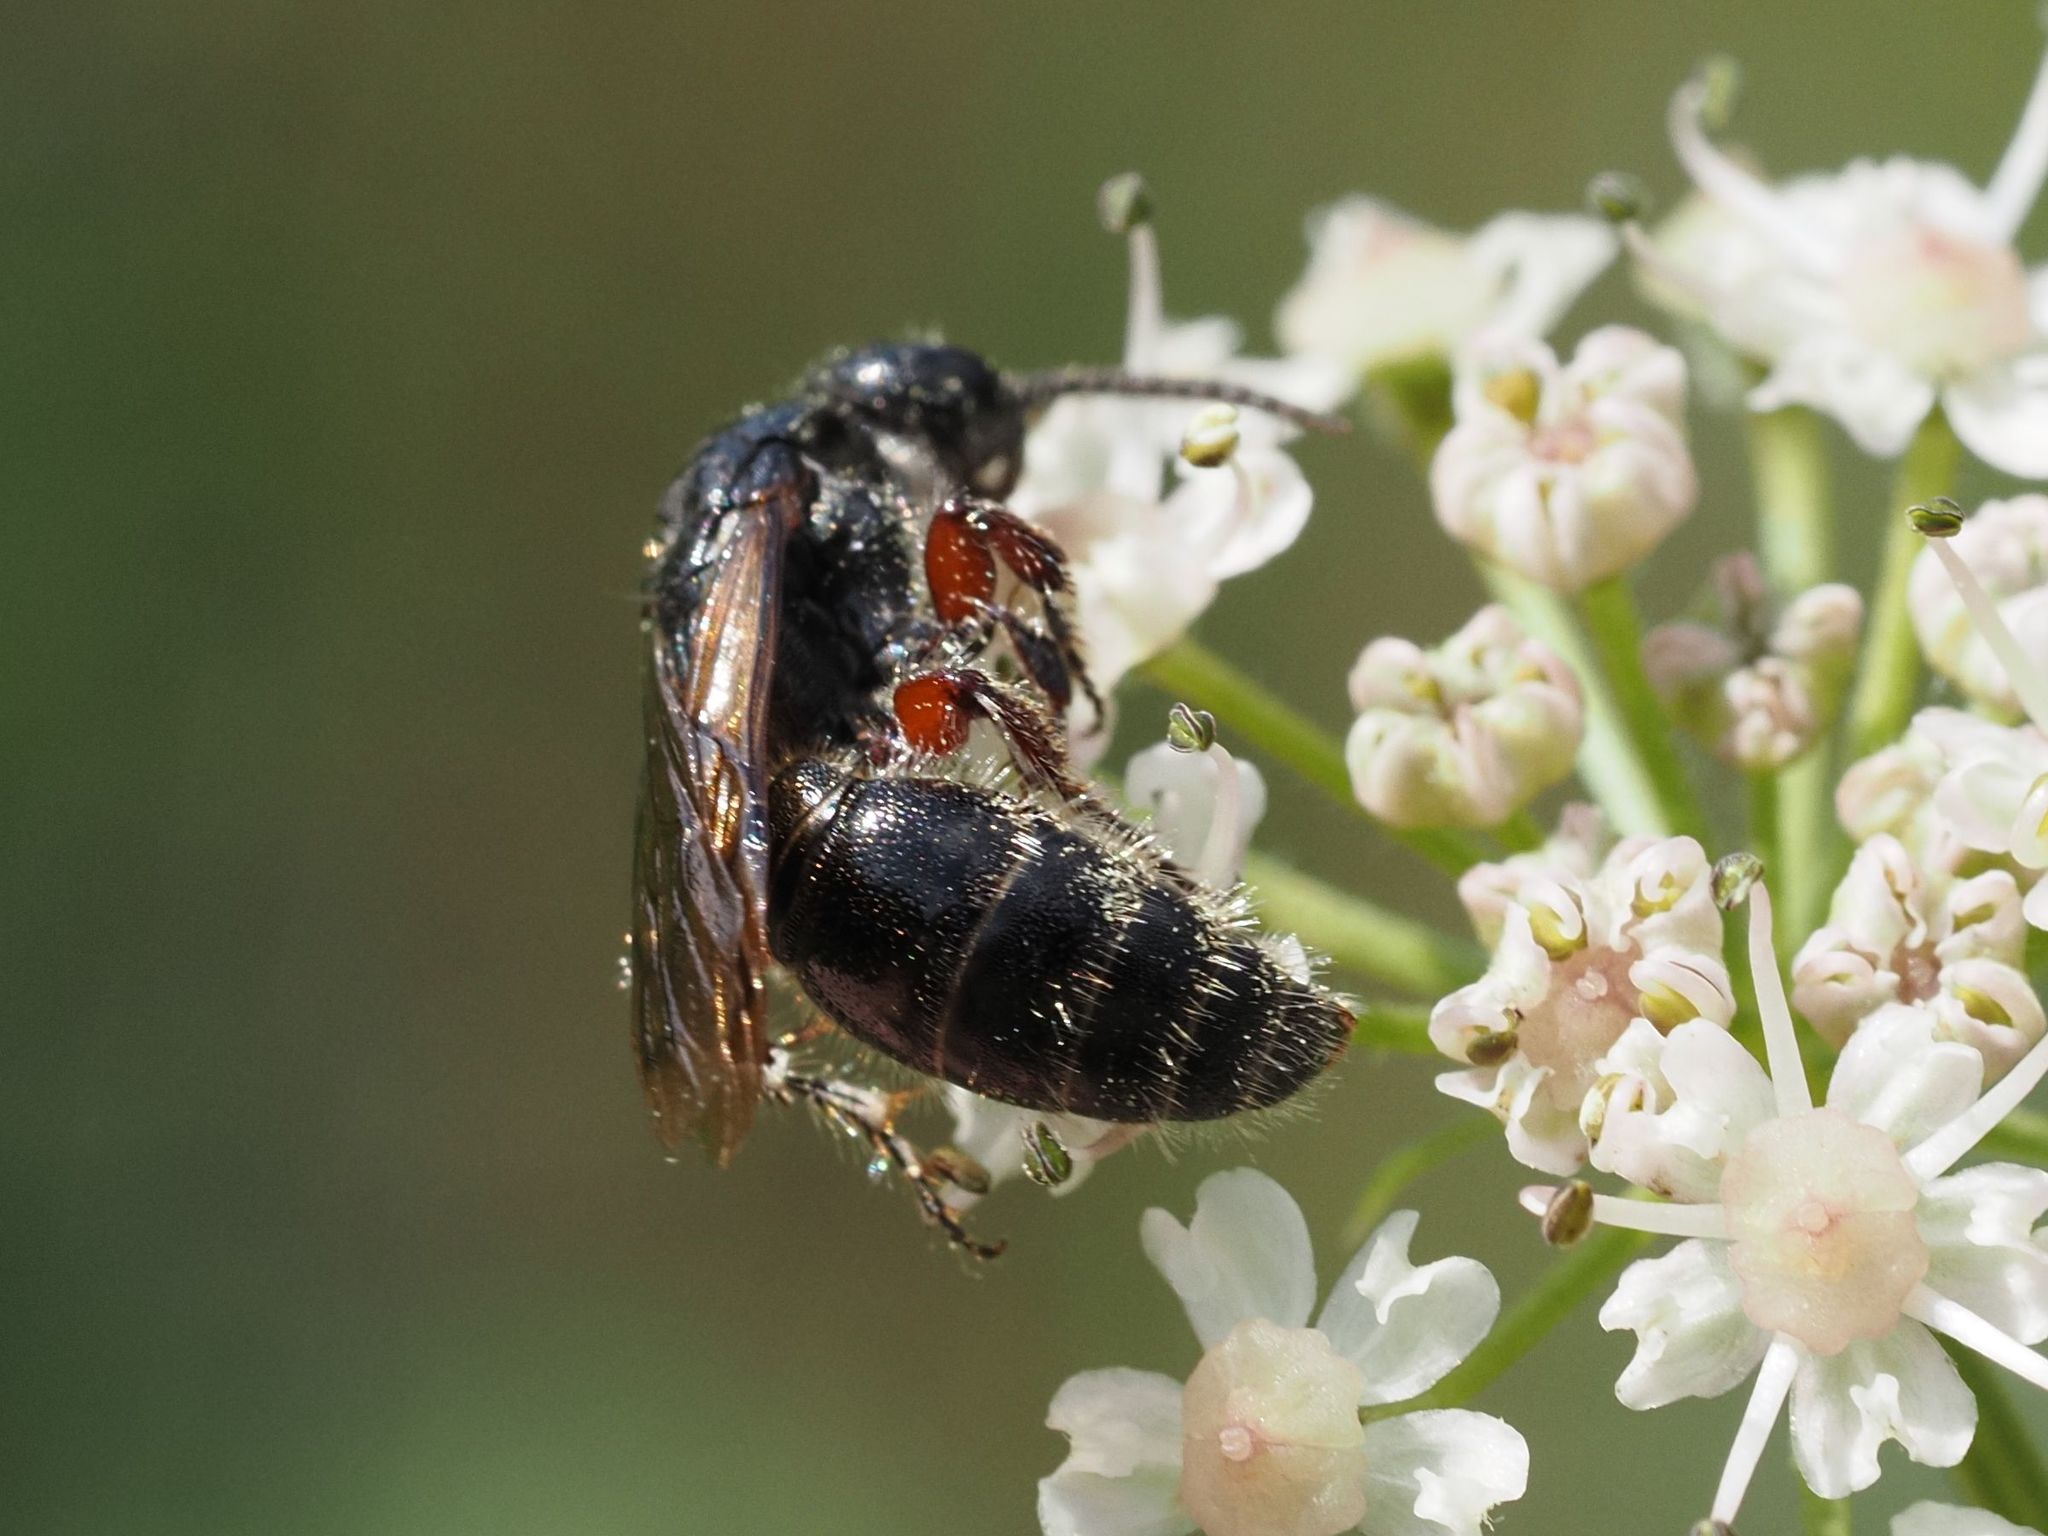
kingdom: Animalia
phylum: Arthropoda
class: Insecta
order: Hymenoptera
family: Tiphiidae
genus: Tiphia
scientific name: Tiphia femorata
